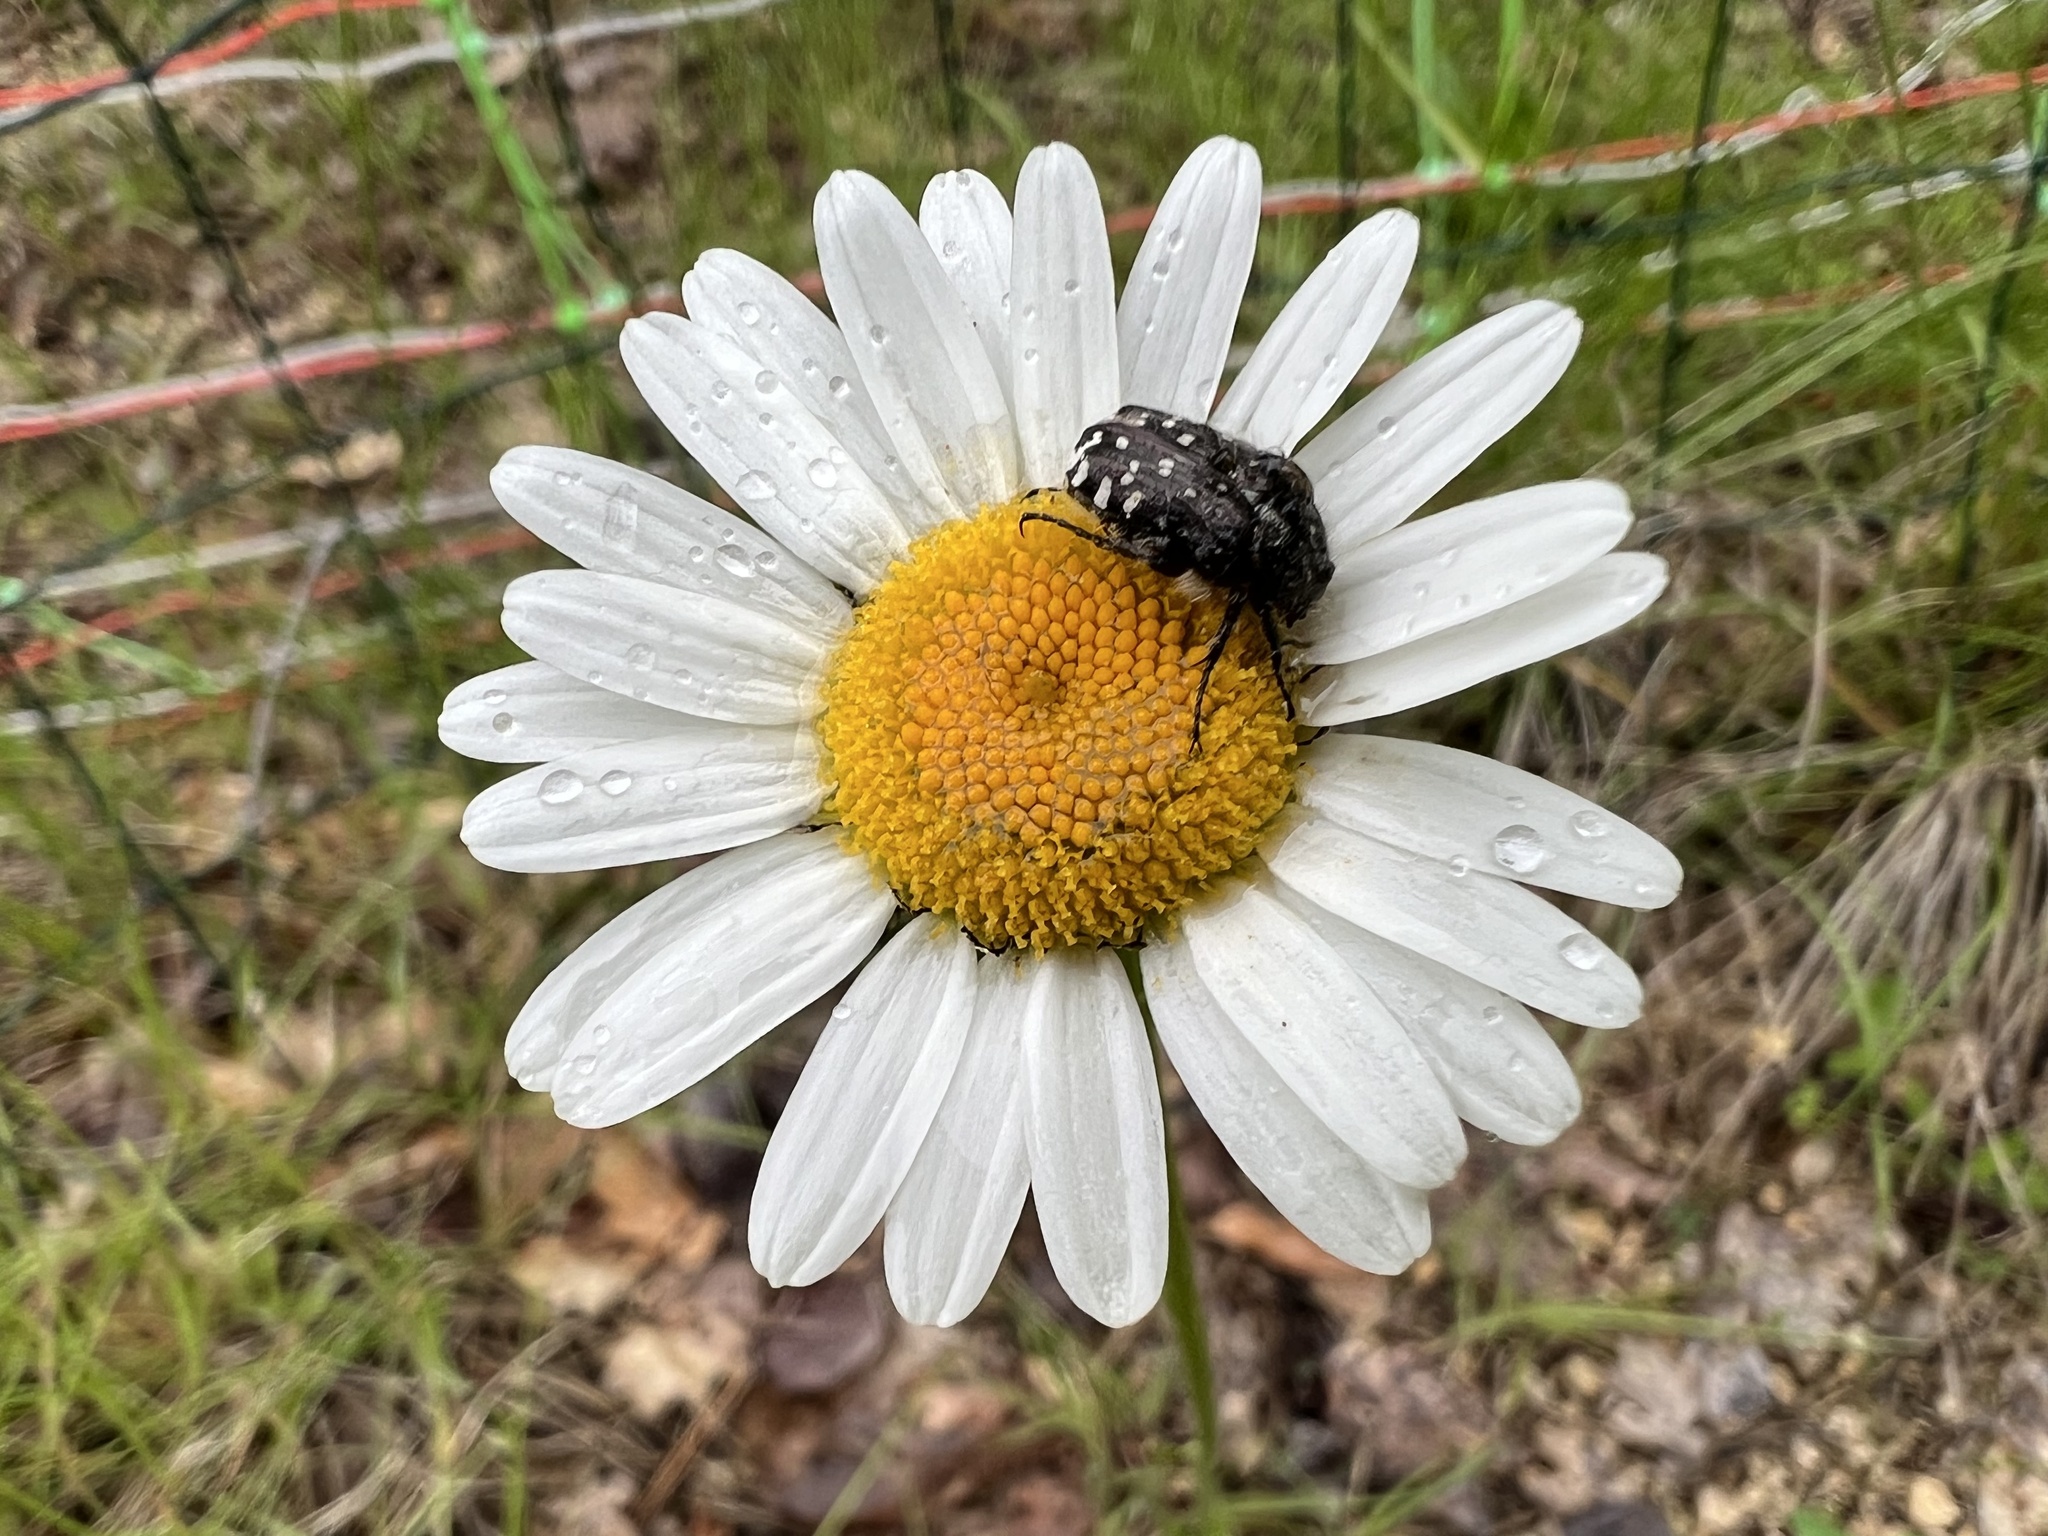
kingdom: Animalia
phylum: Arthropoda
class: Insecta
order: Coleoptera
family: Scarabaeidae
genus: Oxythyrea
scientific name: Oxythyrea funesta
